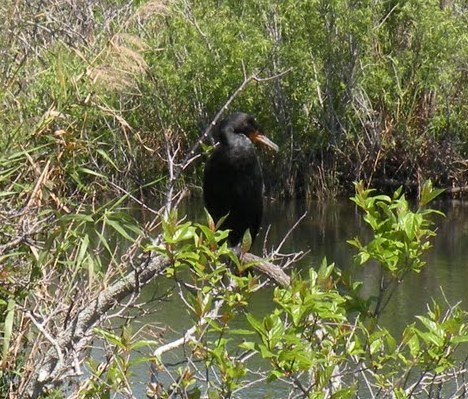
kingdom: Animalia
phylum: Chordata
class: Aves
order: Suliformes
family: Phalacrocoracidae
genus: Phalacrocorax
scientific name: Phalacrocorax auritus
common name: Double-crested cormorant
